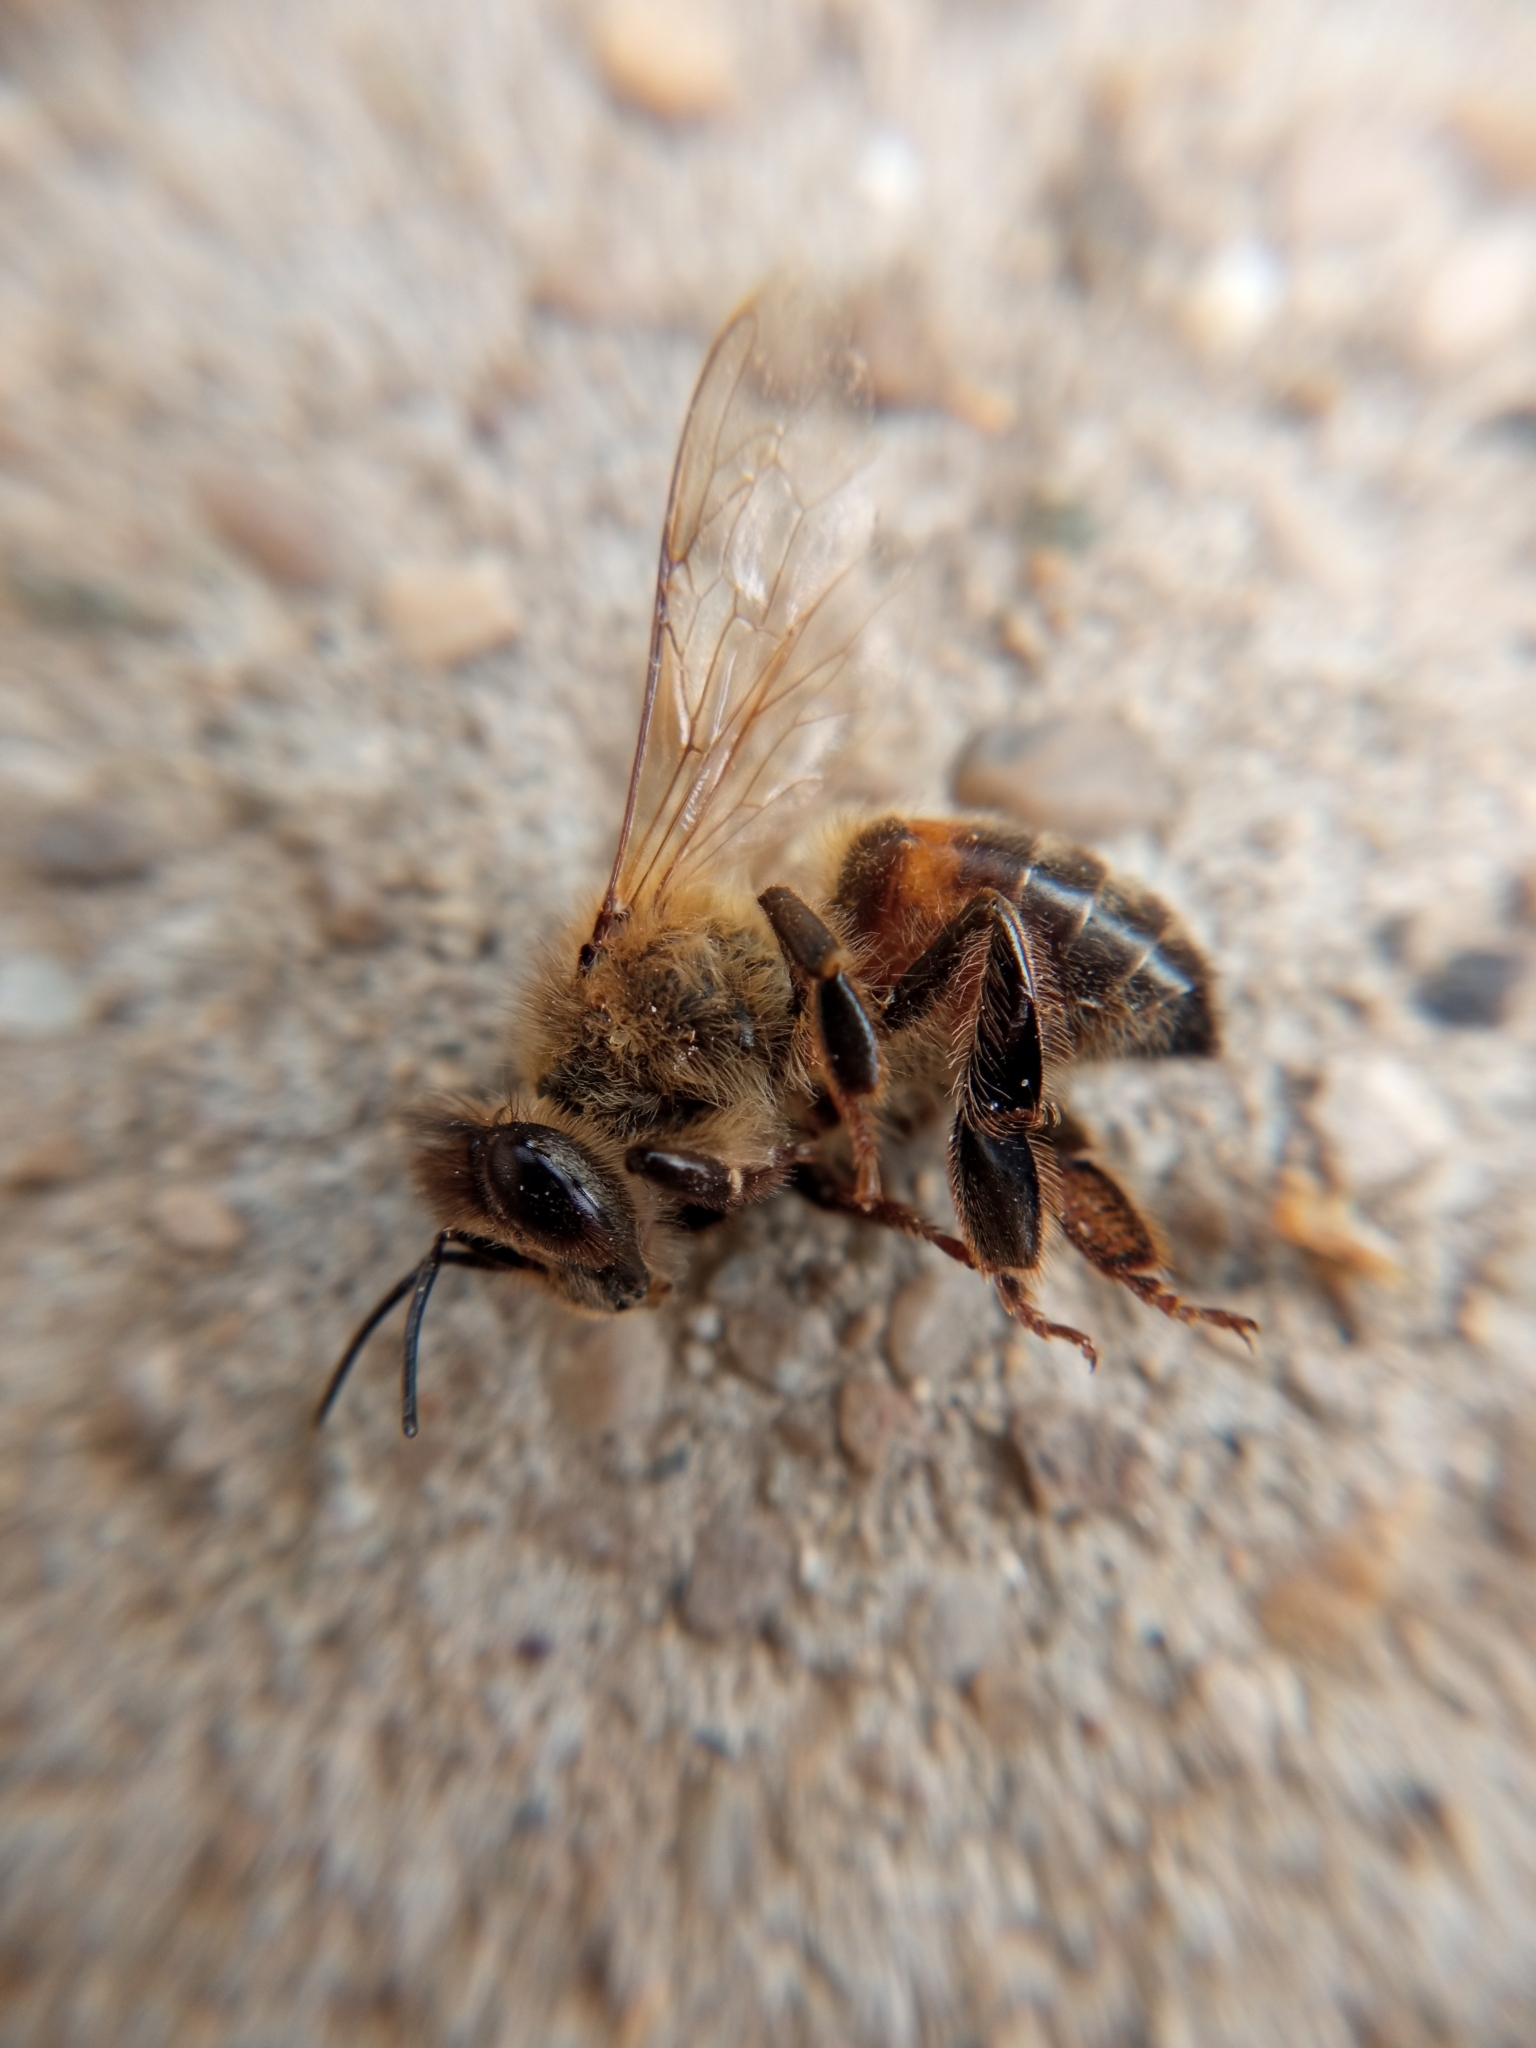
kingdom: Animalia
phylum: Arthropoda
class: Insecta
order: Hymenoptera
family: Apidae
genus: Apis
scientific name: Apis mellifera
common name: Honey bee
